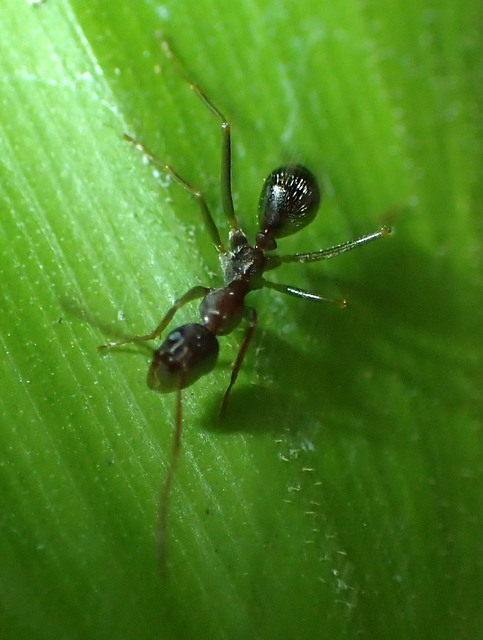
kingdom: Animalia
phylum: Arthropoda
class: Insecta
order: Hymenoptera
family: Formicidae
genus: Formica
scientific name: Formica archboldi
